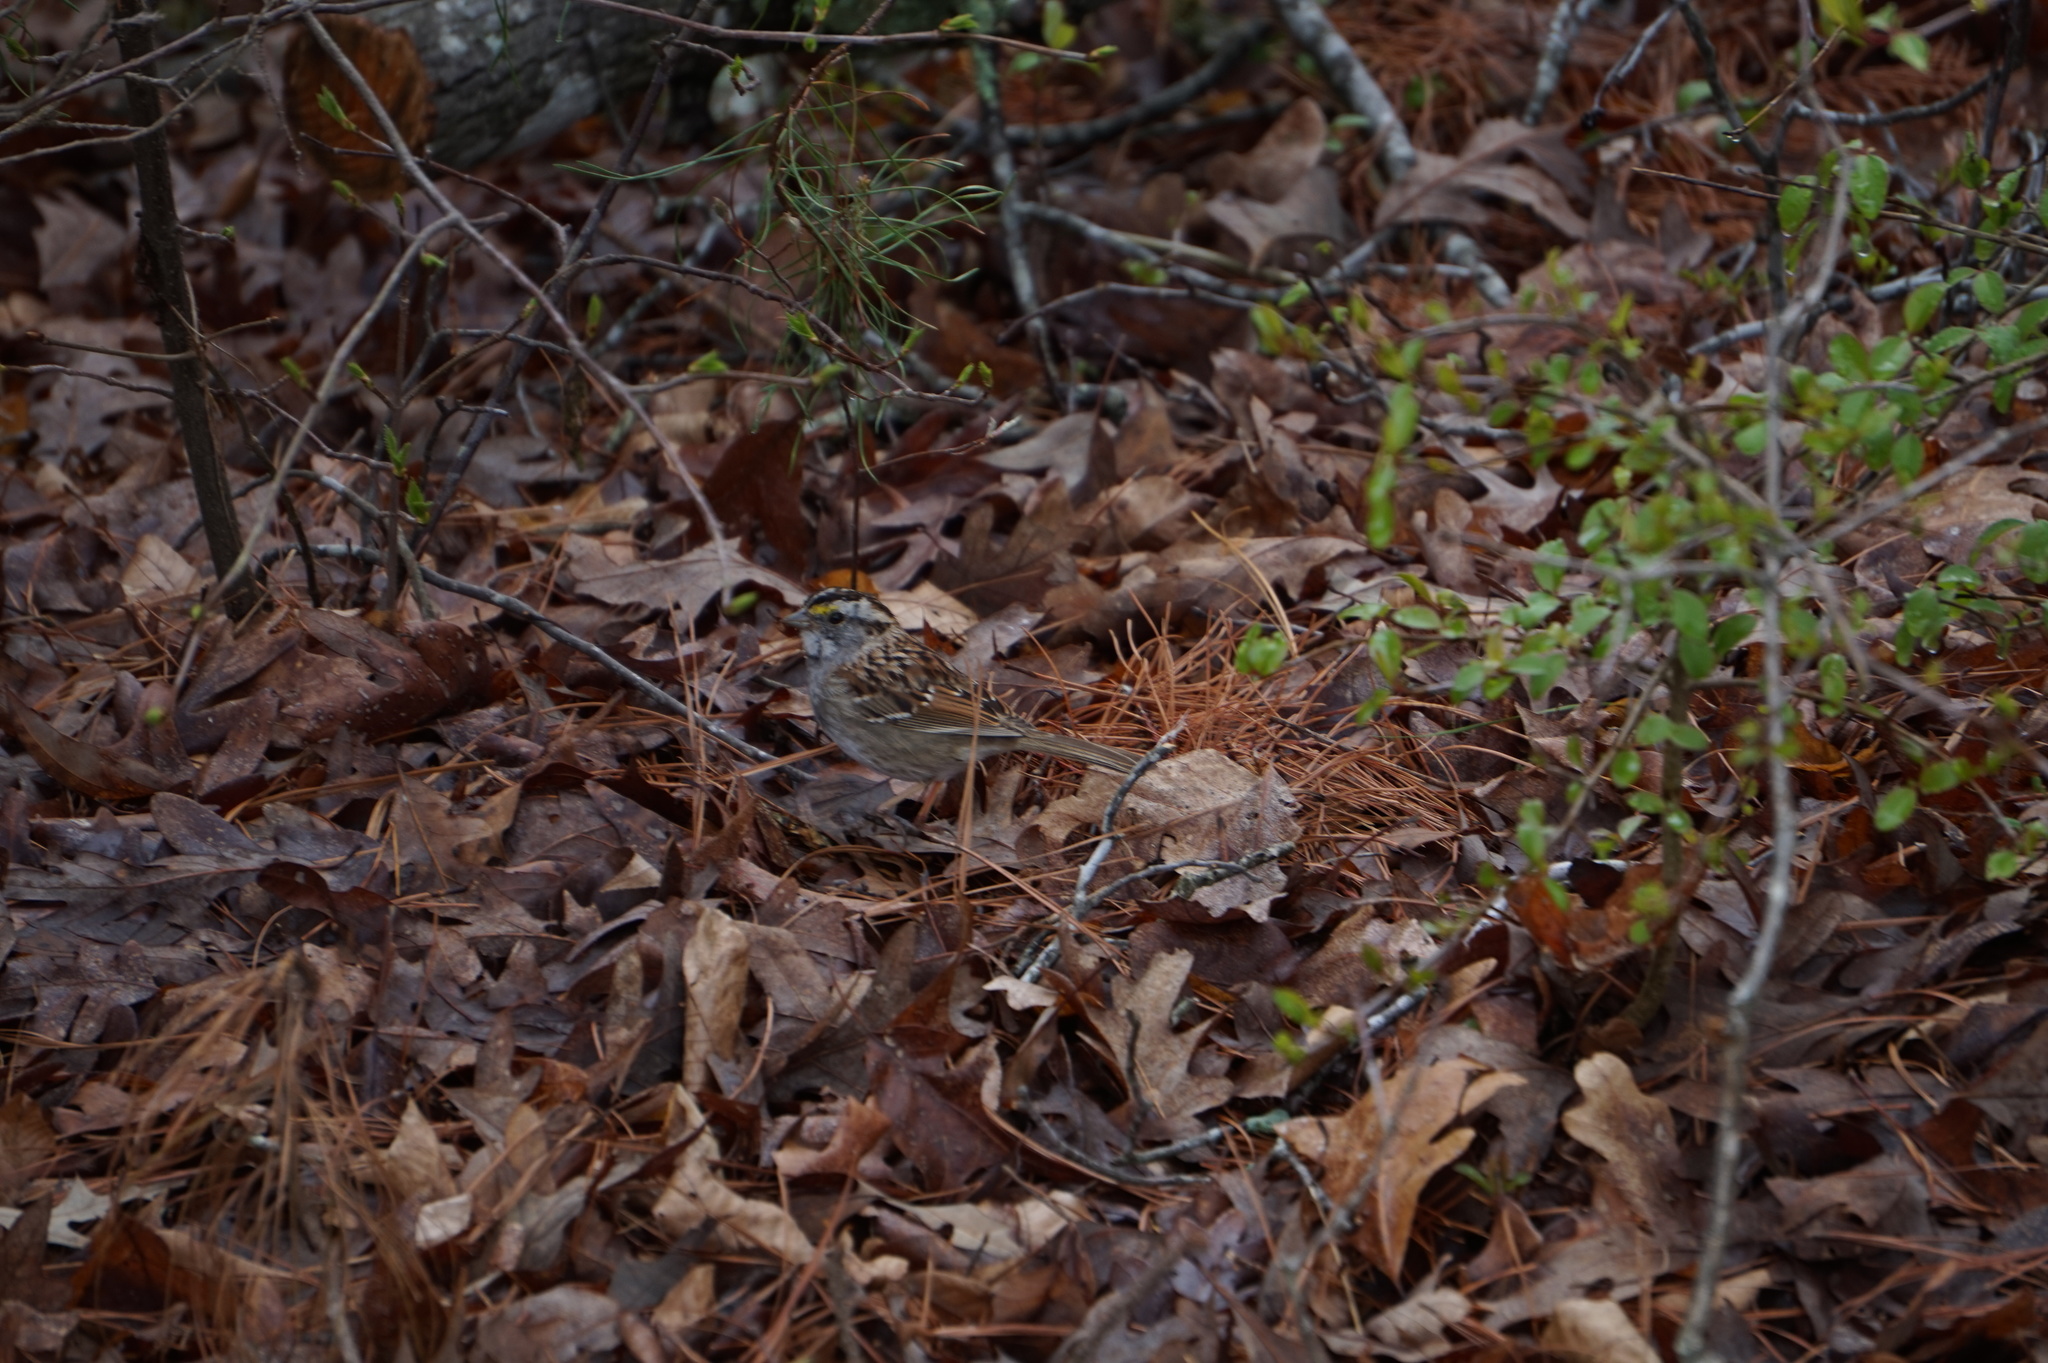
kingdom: Animalia
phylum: Chordata
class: Aves
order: Passeriformes
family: Passerellidae
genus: Zonotrichia
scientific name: Zonotrichia albicollis
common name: White-throated sparrow
